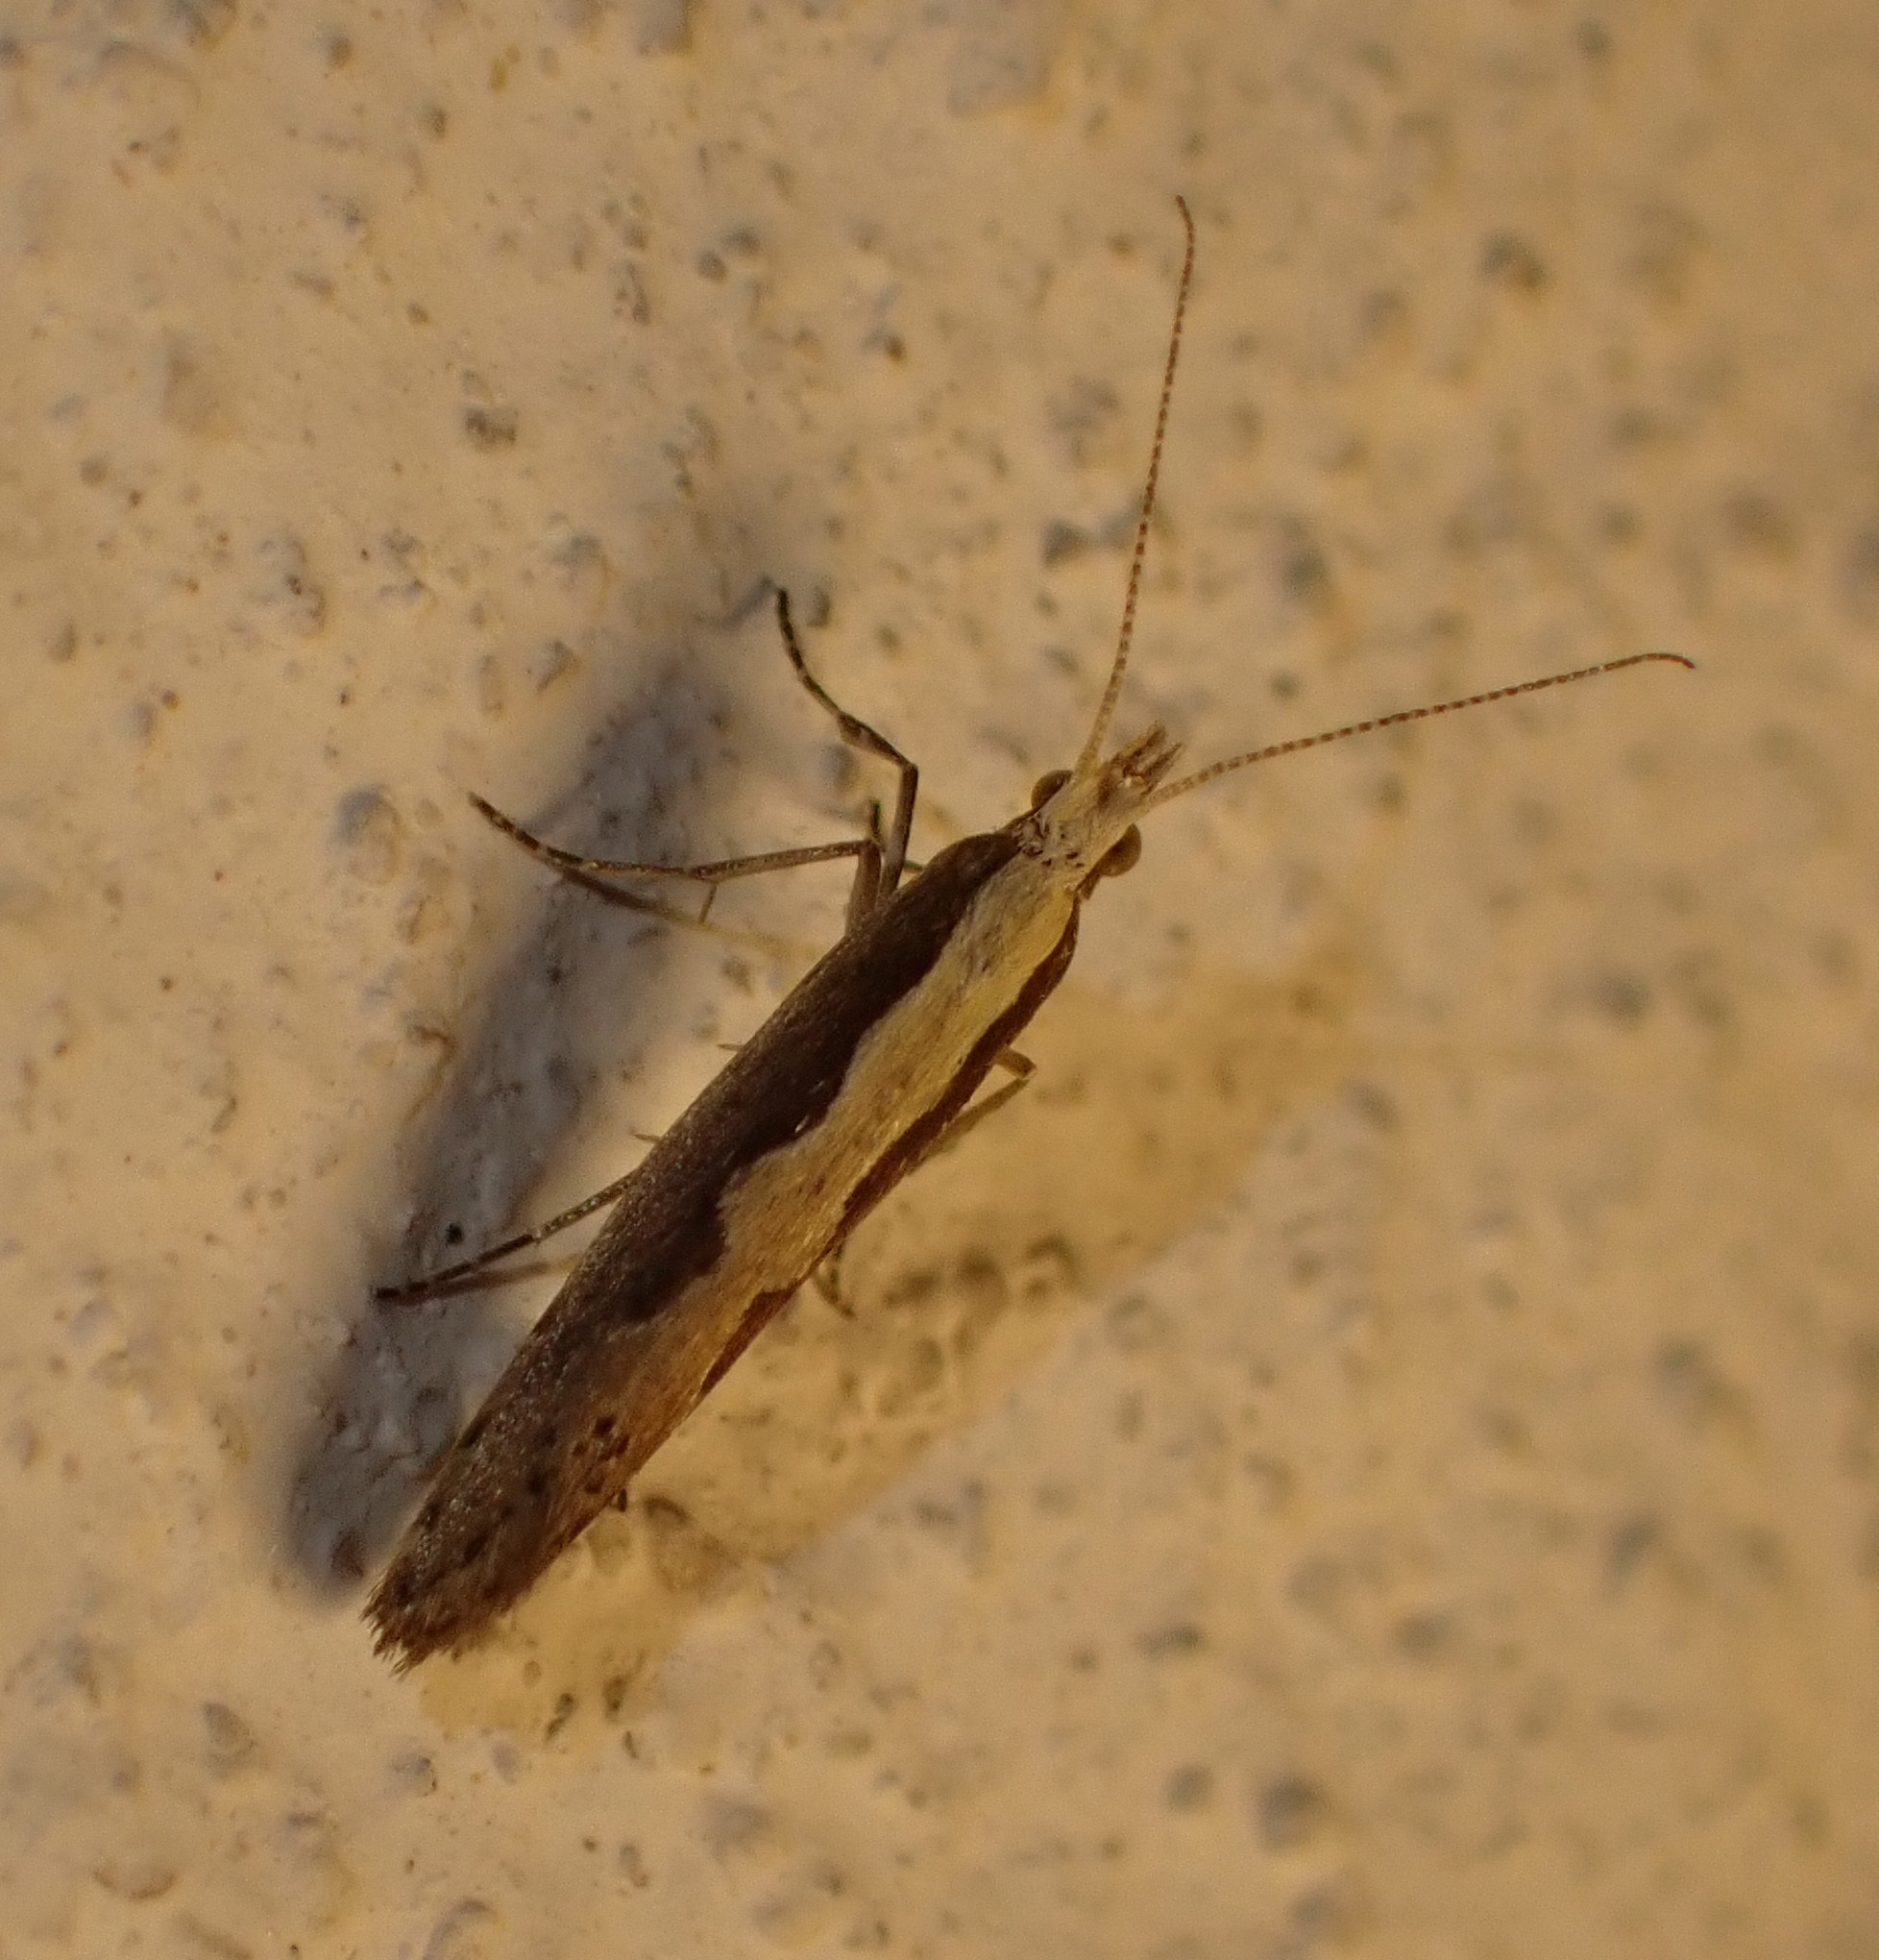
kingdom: Animalia
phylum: Arthropoda
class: Insecta
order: Lepidoptera
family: Plutellidae
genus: Plutella
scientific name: Plutella xylostella
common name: Diamond-back moth
